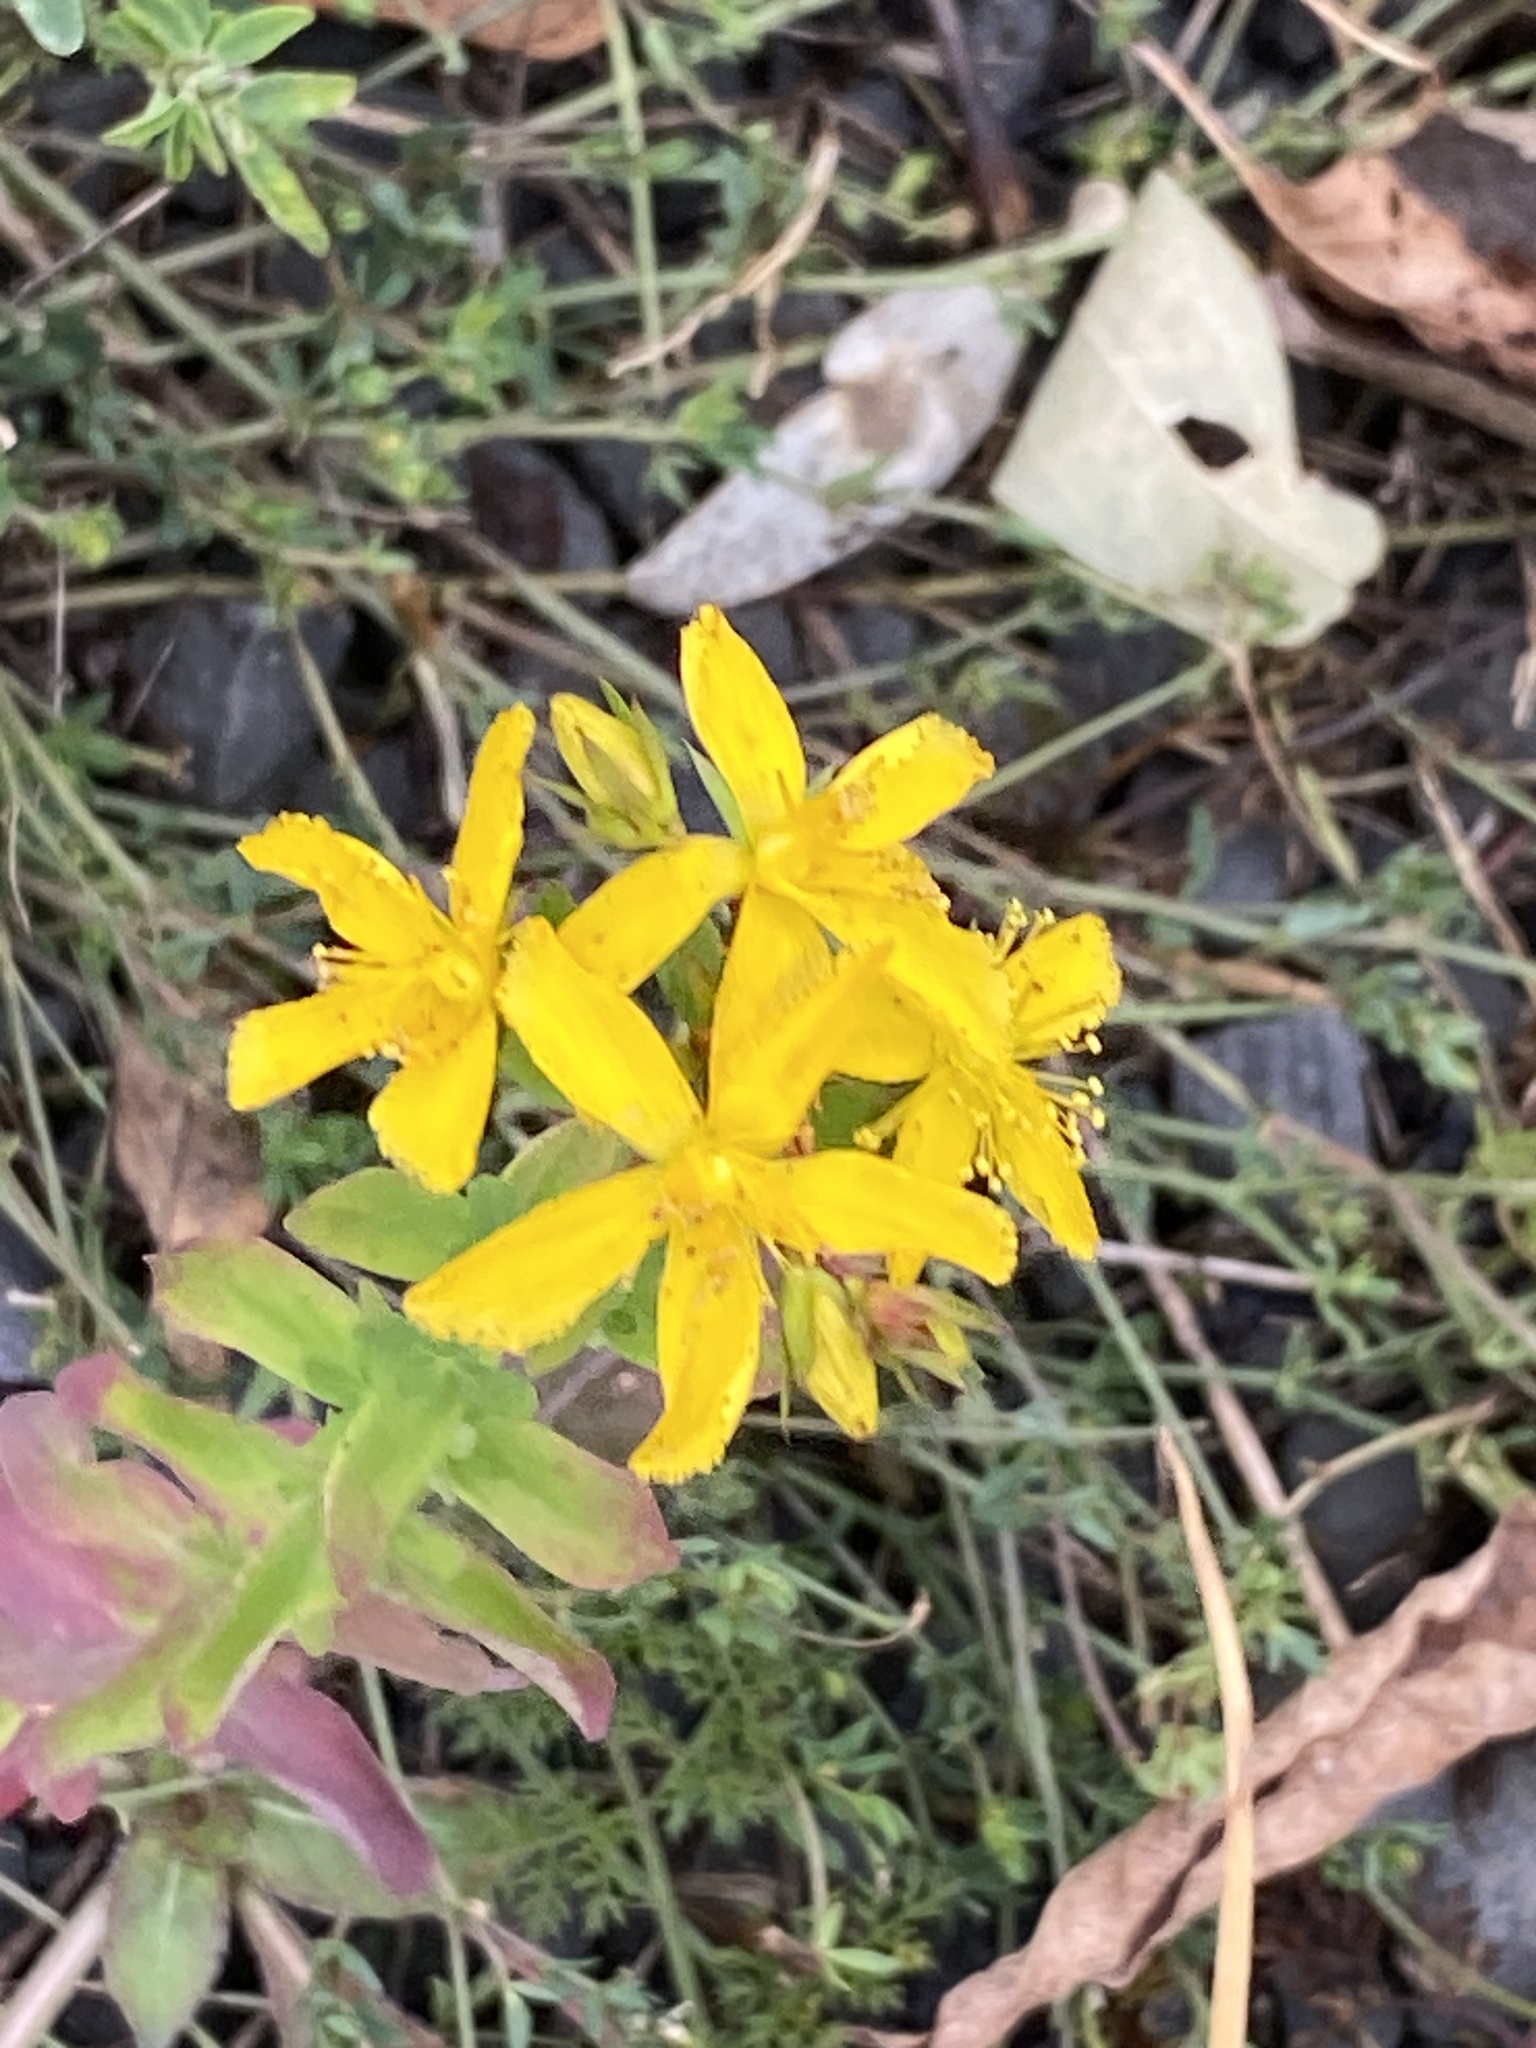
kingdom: Plantae
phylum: Tracheophyta
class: Magnoliopsida
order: Malpighiales
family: Hypericaceae
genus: Hypericum
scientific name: Hypericum perforatum
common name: Common st. johnswort
